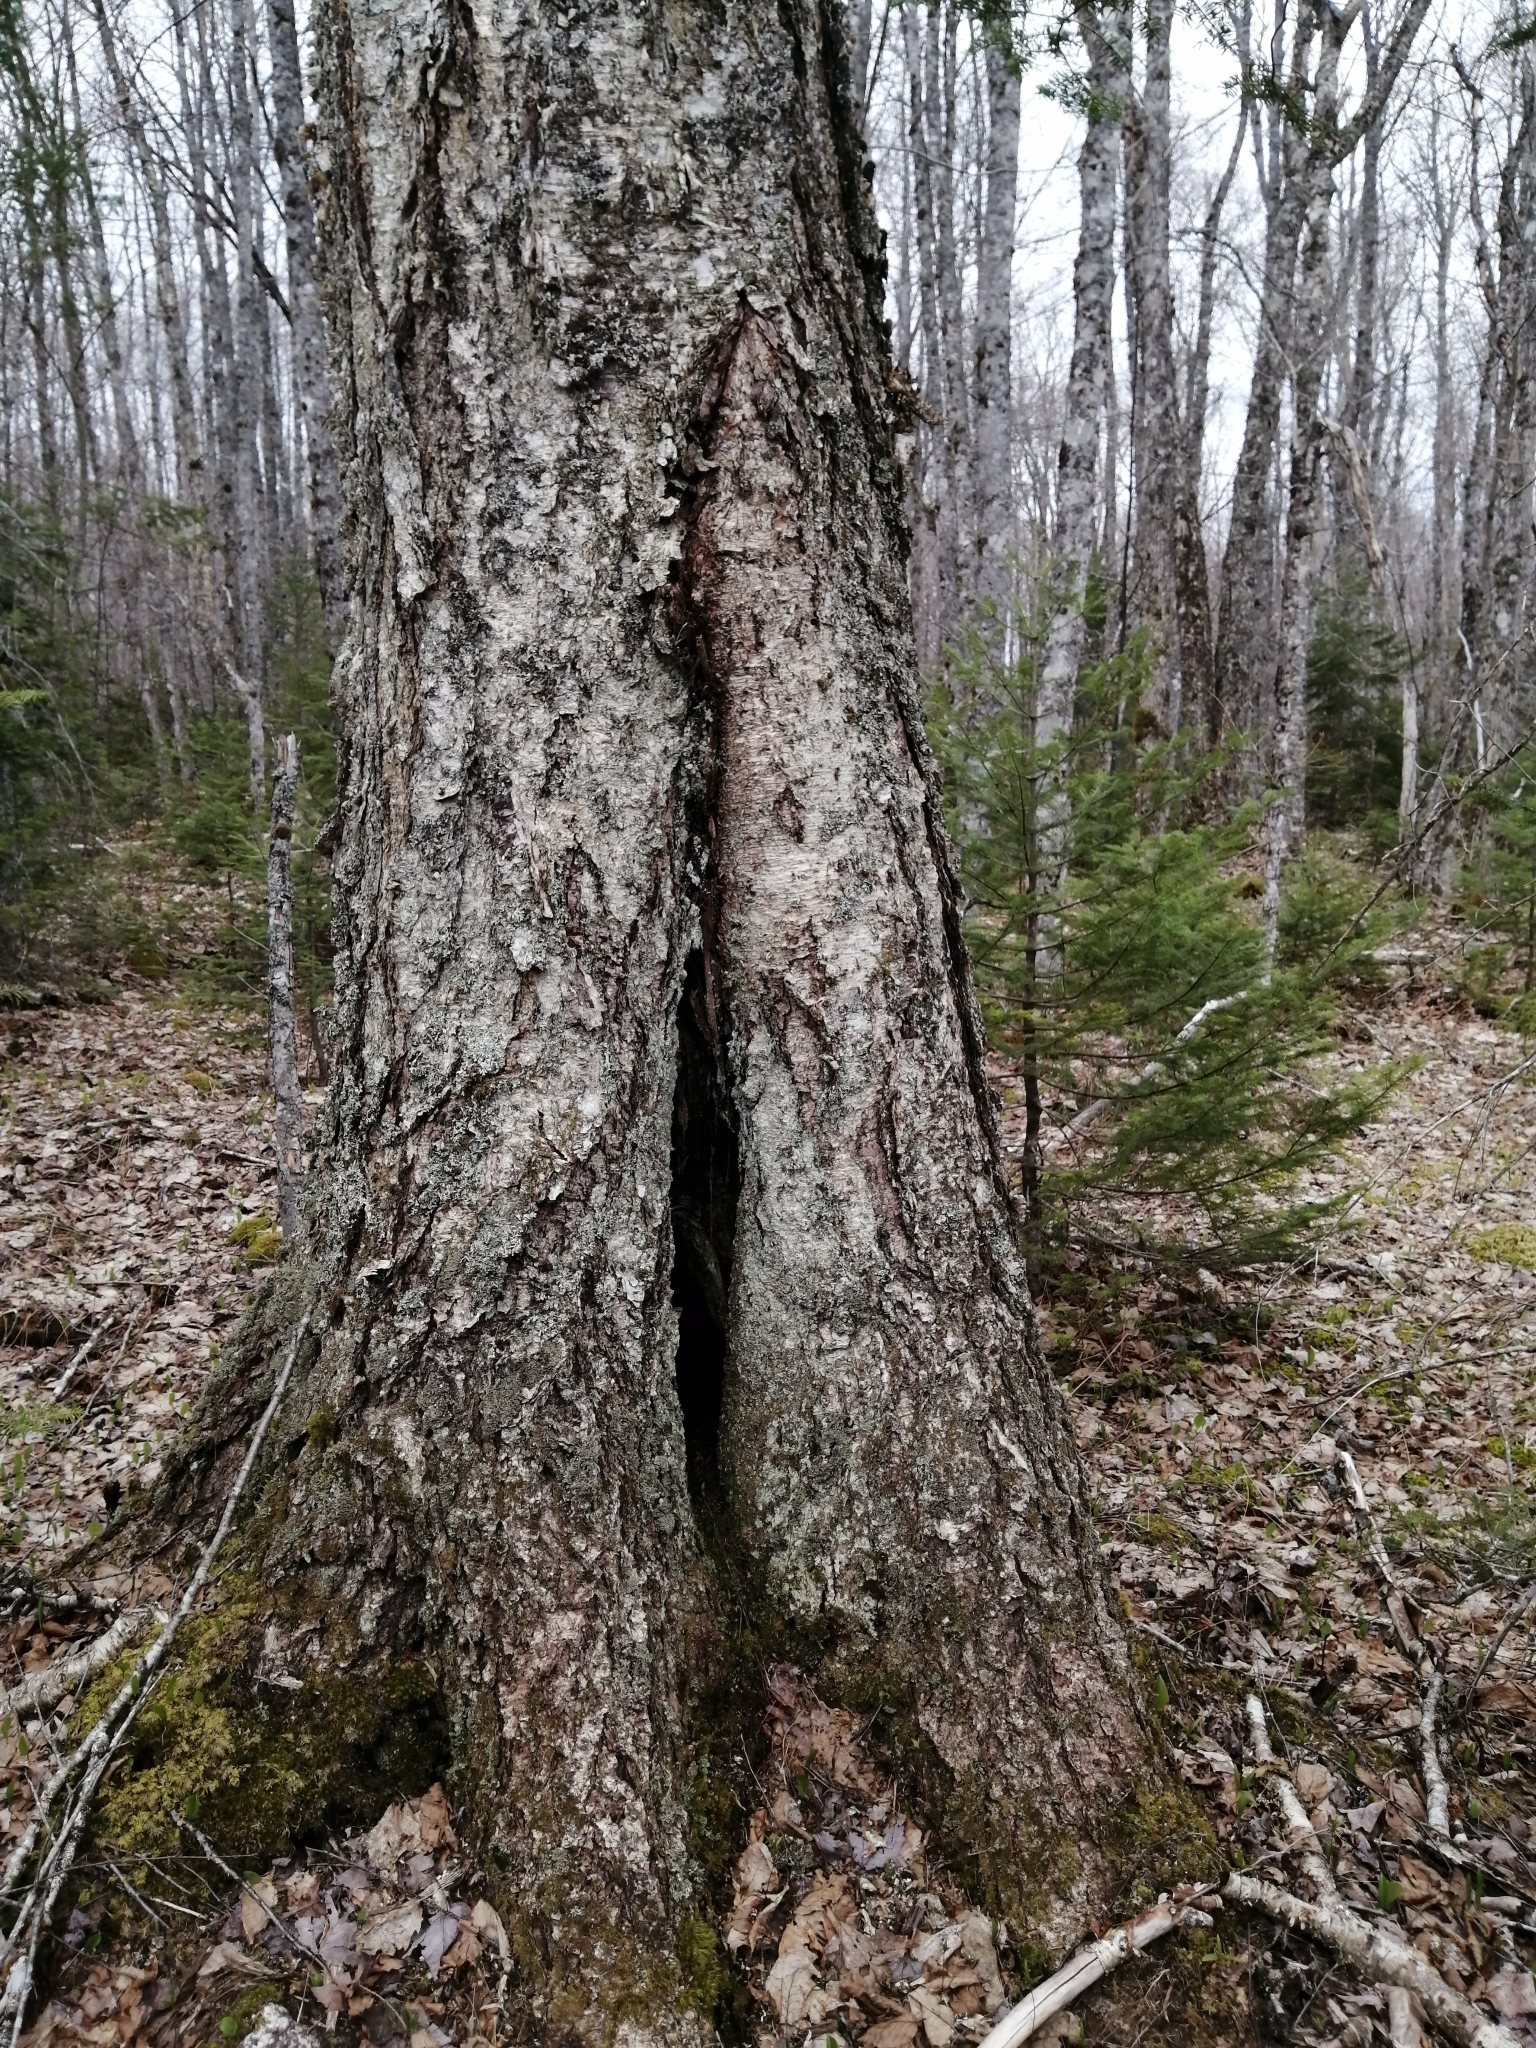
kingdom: Plantae
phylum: Tracheophyta
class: Magnoliopsida
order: Fagales
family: Betulaceae
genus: Betula
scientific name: Betula alleghaniensis
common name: Yellow birch
